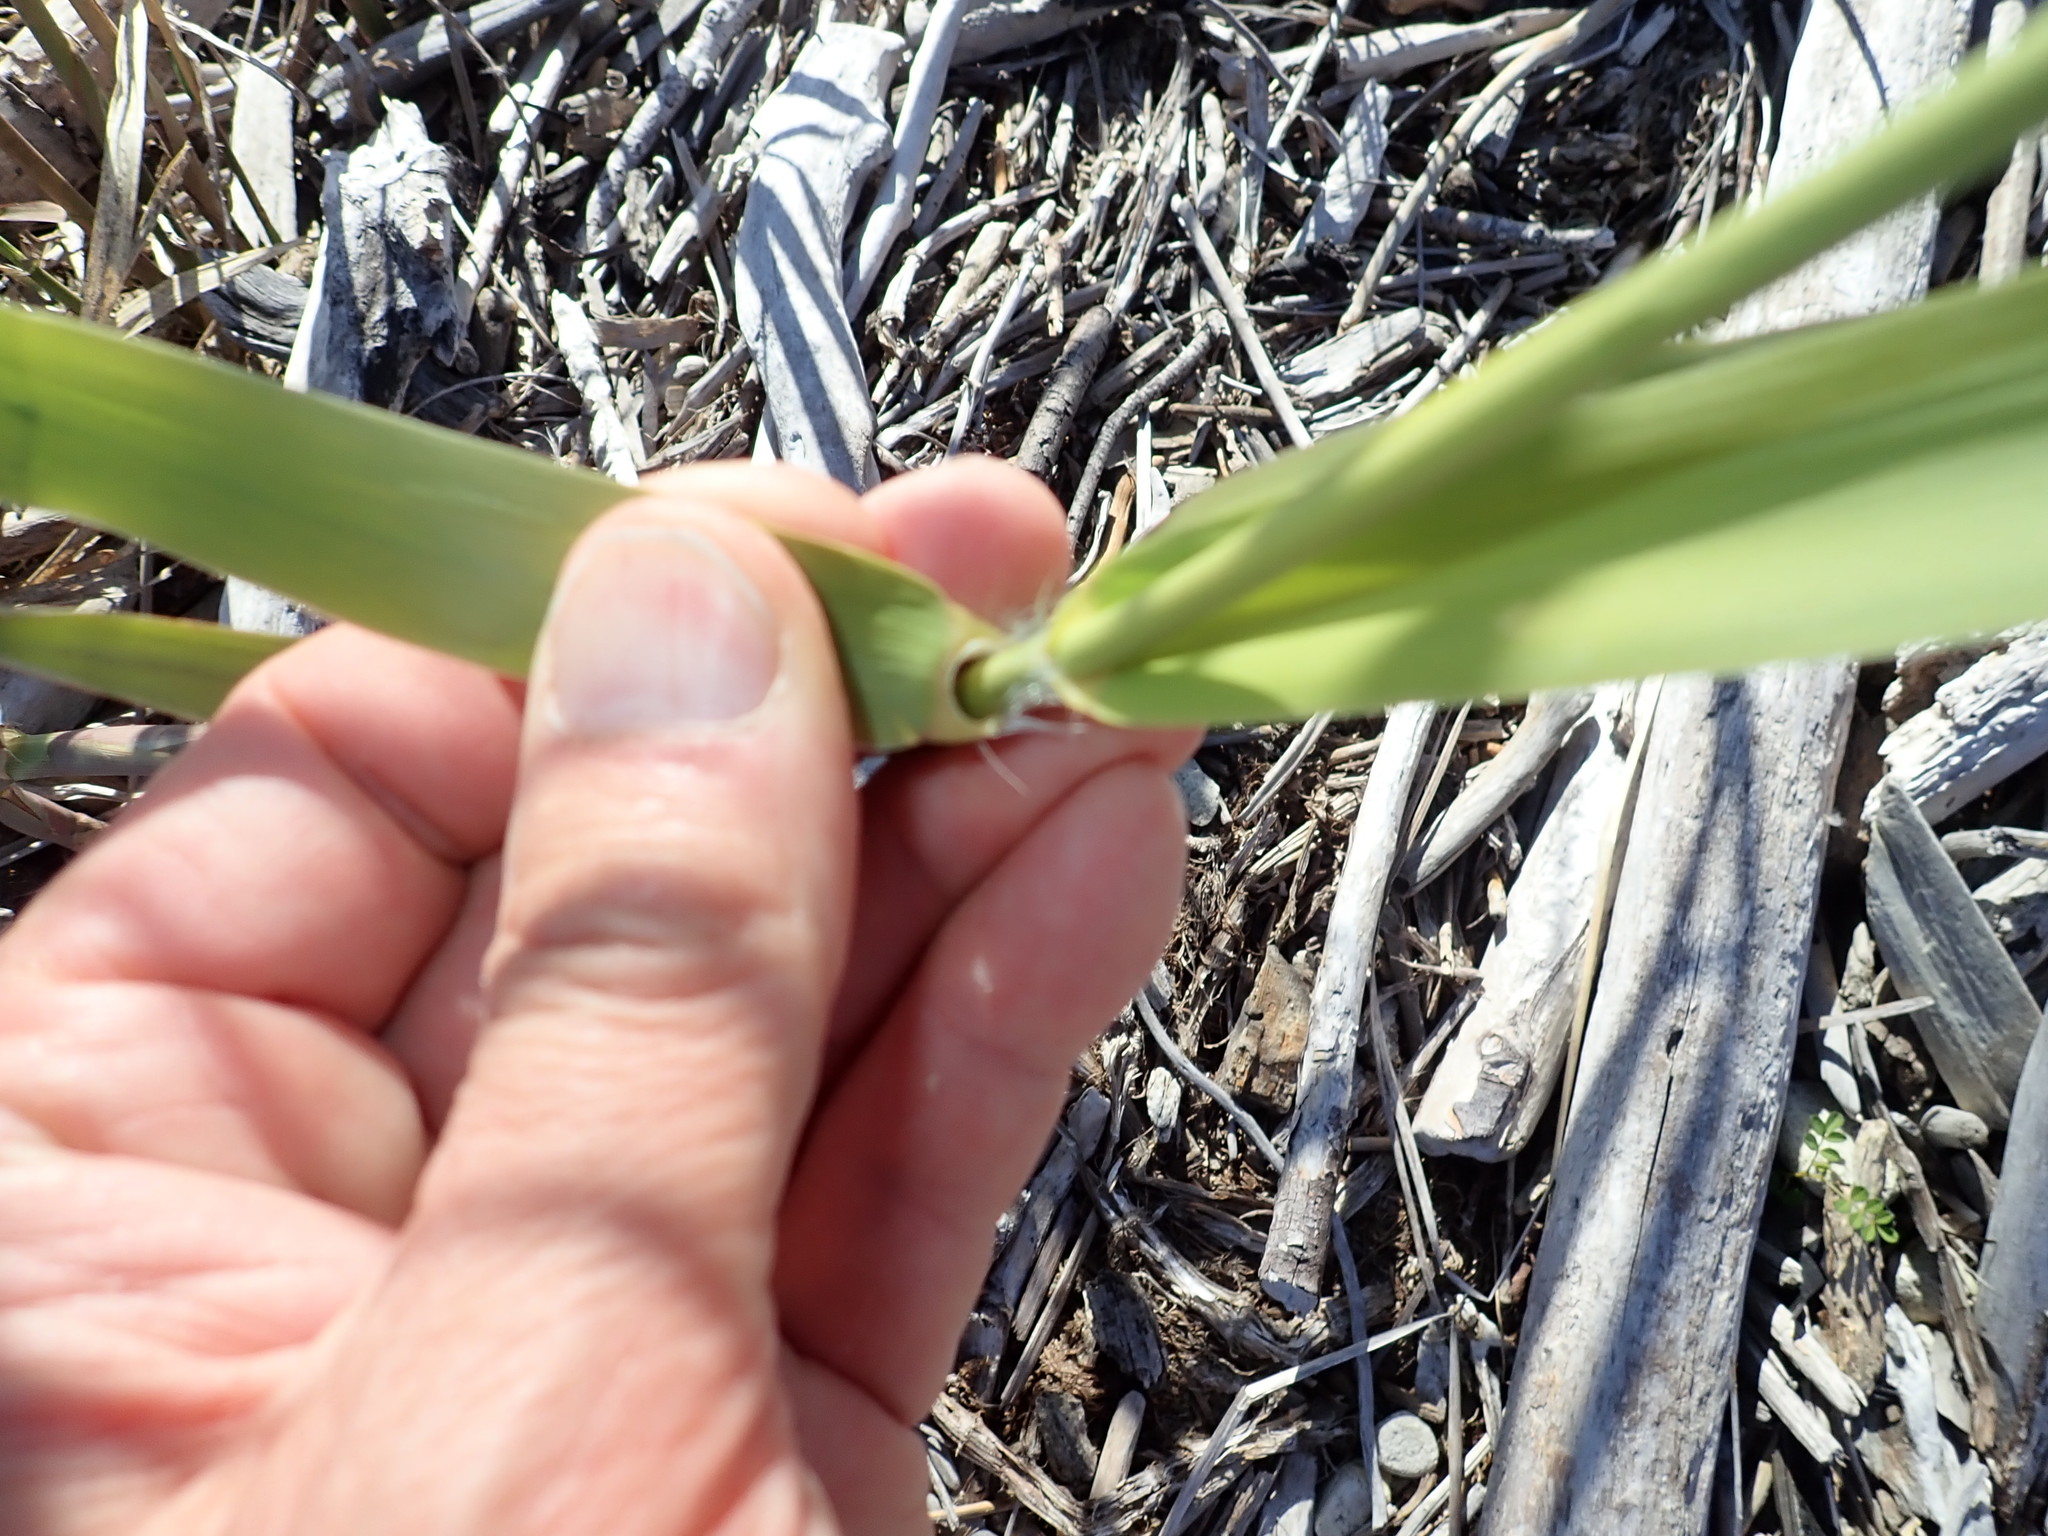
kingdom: Plantae
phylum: Tracheophyta
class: Liliopsida
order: Poales
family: Poaceae
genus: Phragmites
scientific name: Phragmites karka
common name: Tropical reed
